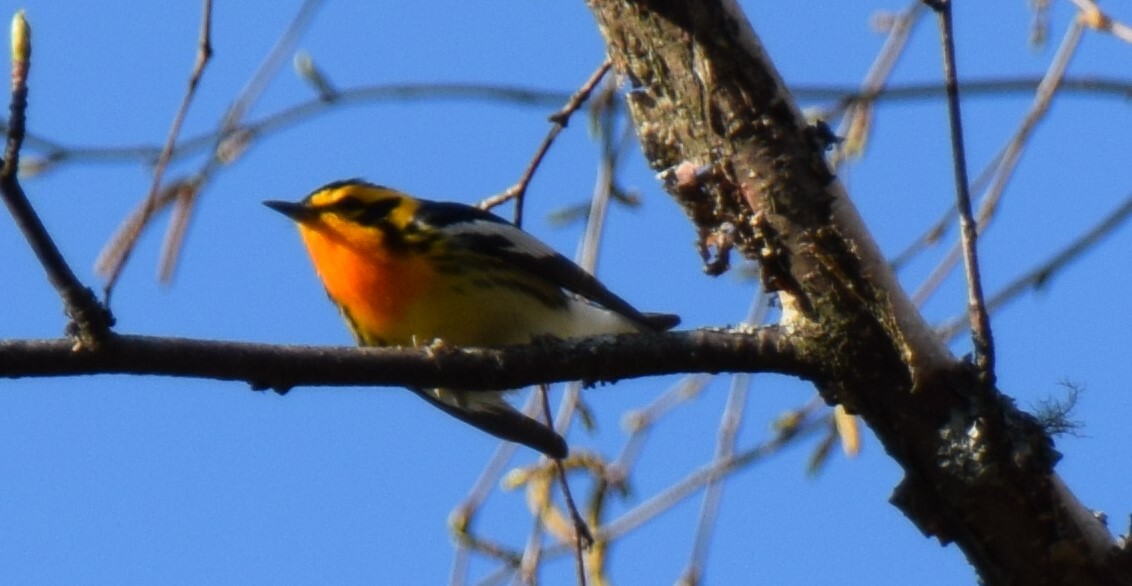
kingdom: Animalia
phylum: Chordata
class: Aves
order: Passeriformes
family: Parulidae
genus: Setophaga
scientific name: Setophaga fusca
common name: Blackburnian warbler
